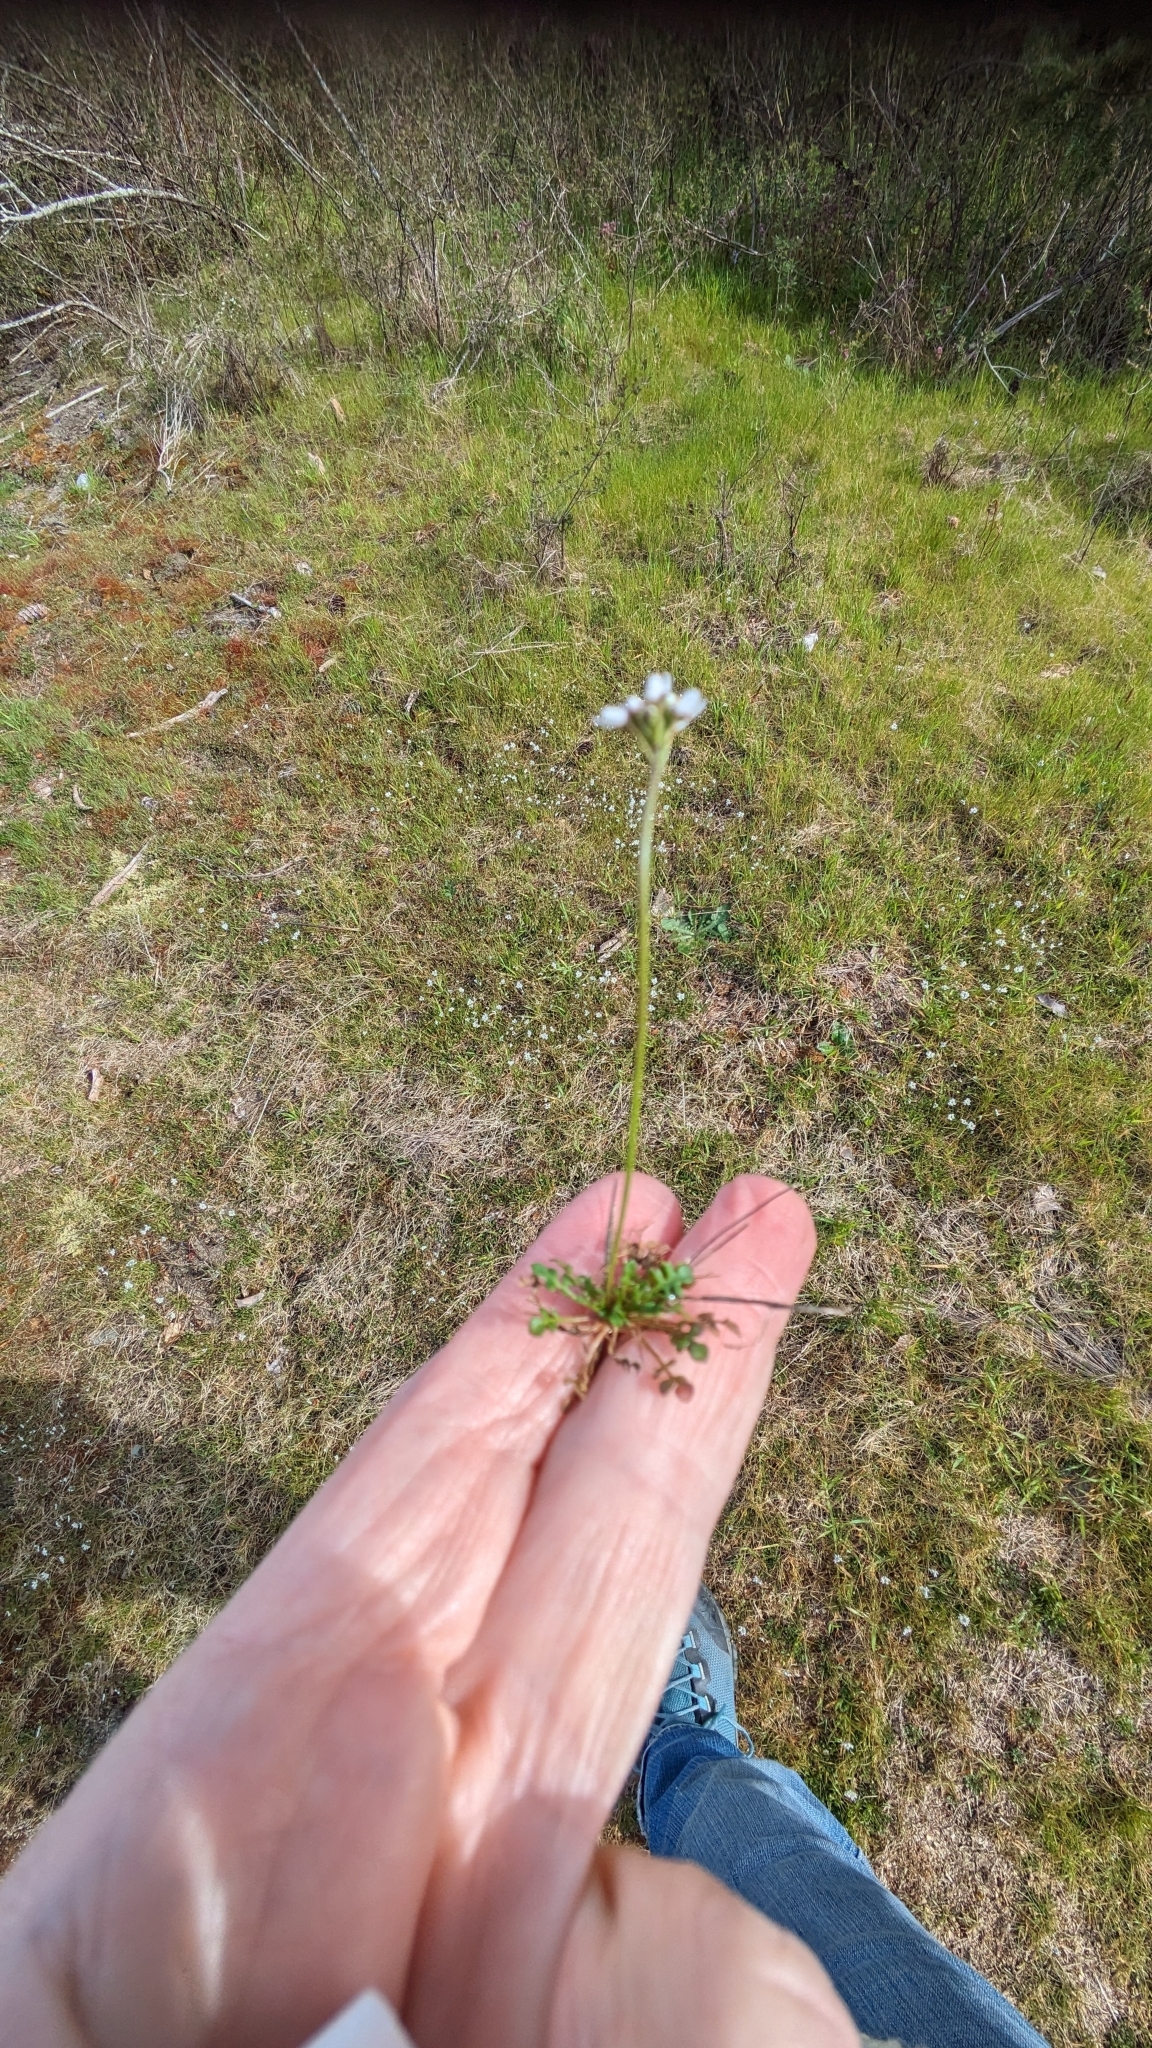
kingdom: Plantae
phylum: Tracheophyta
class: Magnoliopsida
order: Brassicales
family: Brassicaceae
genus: Teesdalia
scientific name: Teesdalia nudicaulis
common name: Shepherd's cress
